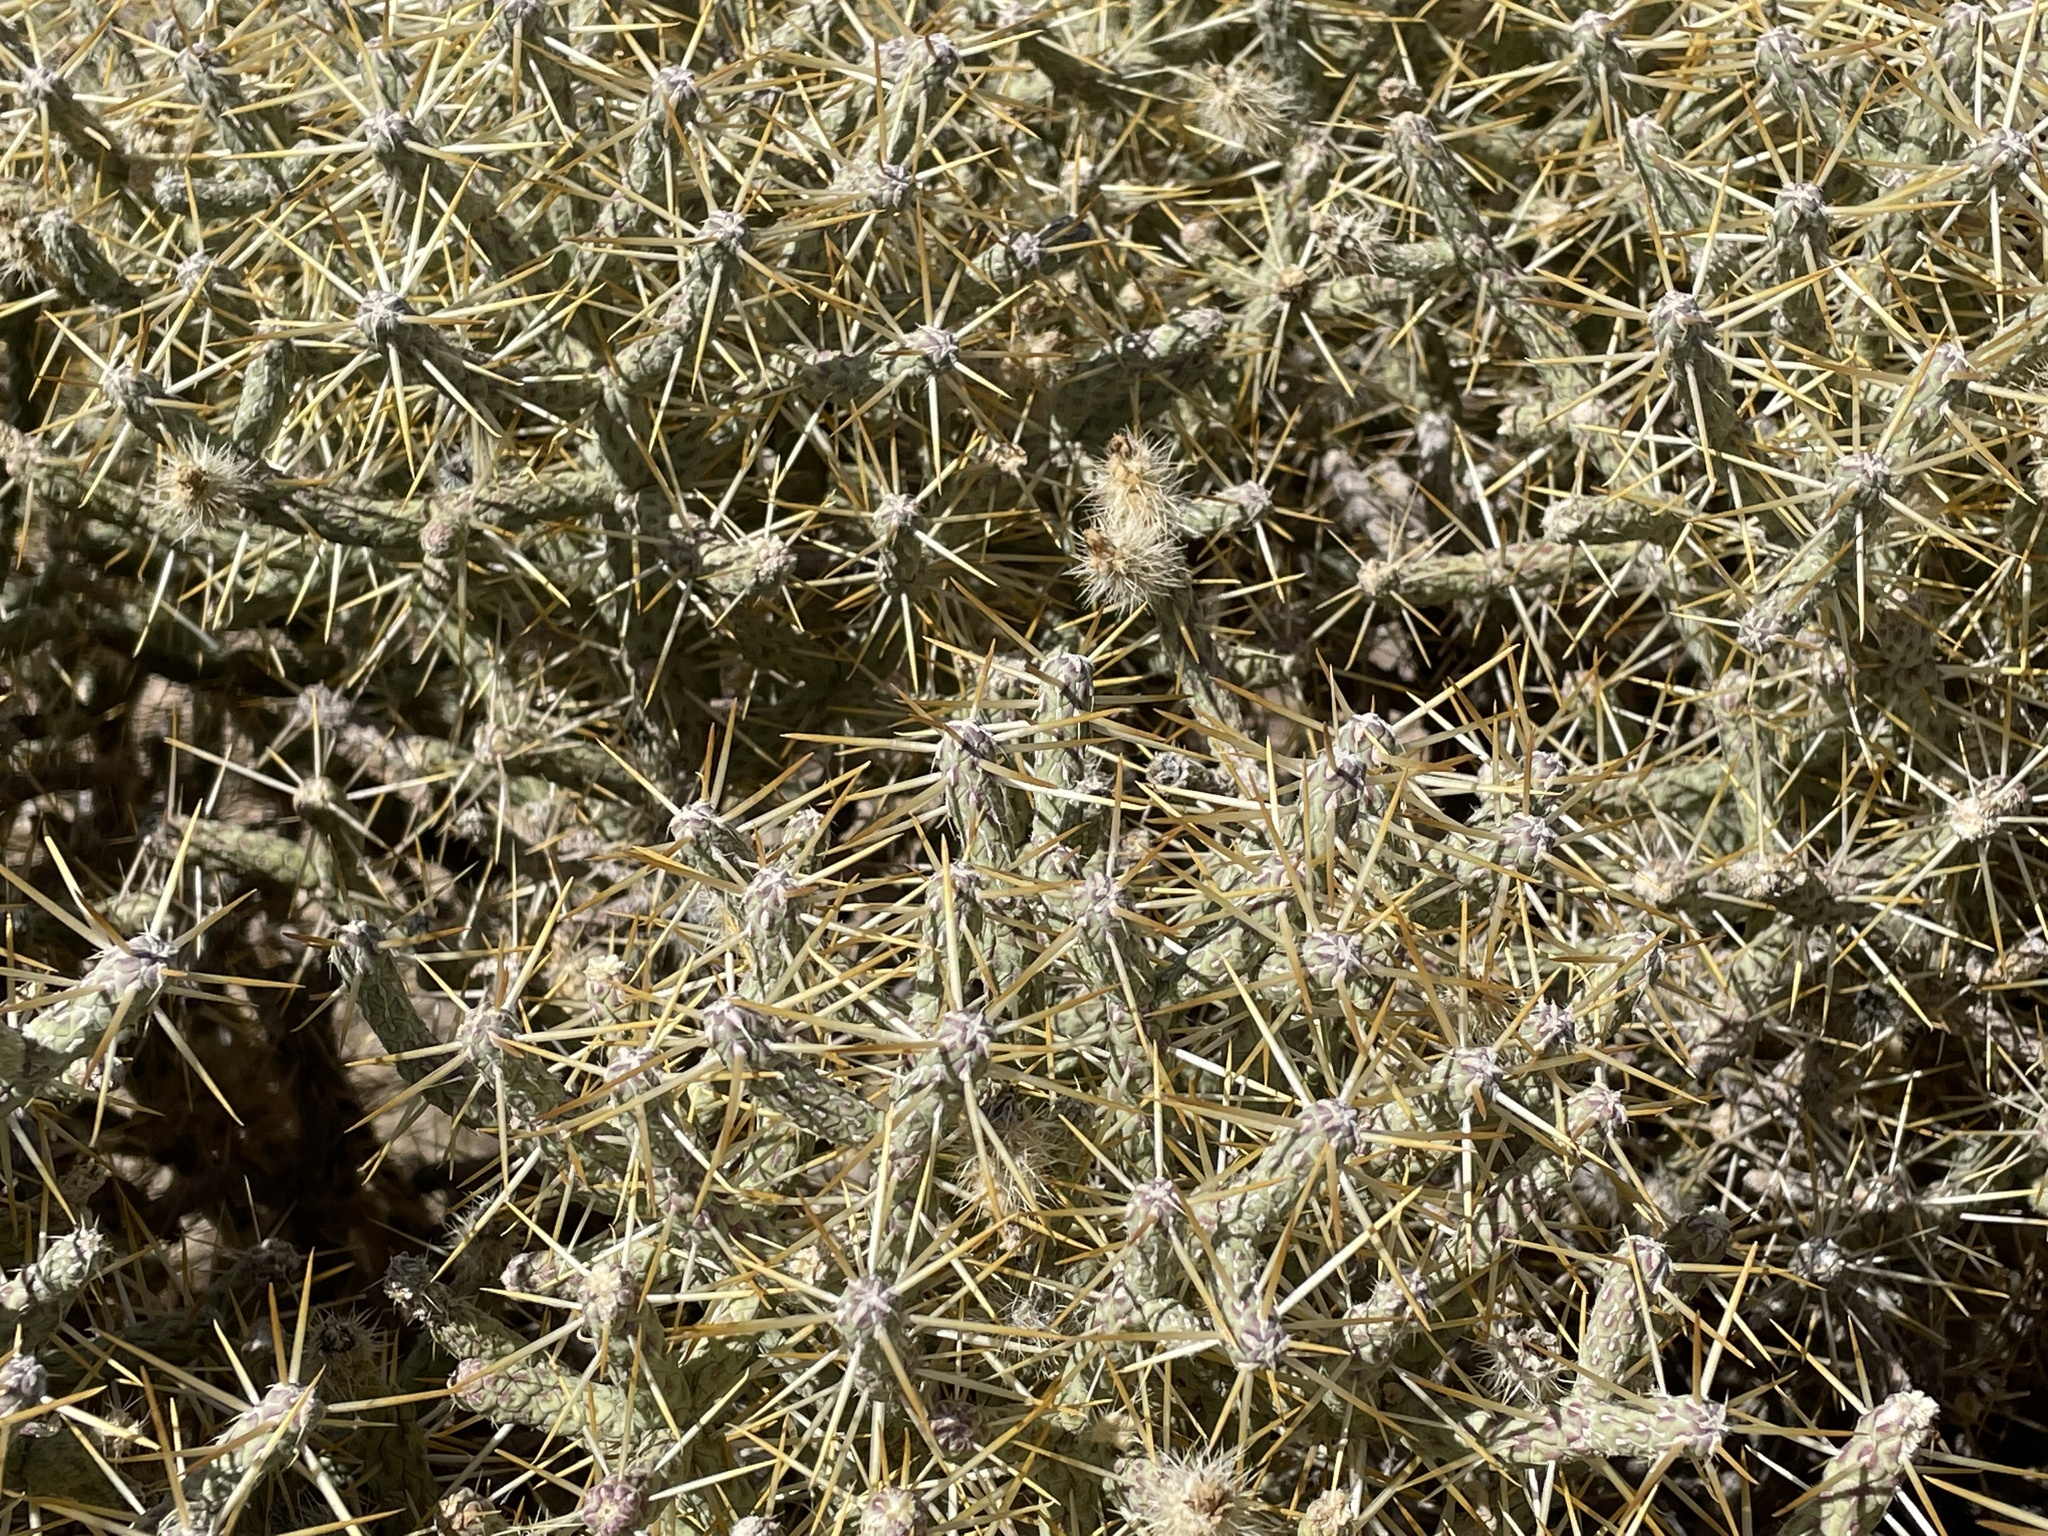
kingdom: Plantae
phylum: Tracheophyta
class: Magnoliopsida
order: Caryophyllales
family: Cactaceae
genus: Cylindropuntia
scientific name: Cylindropuntia ramosissima
